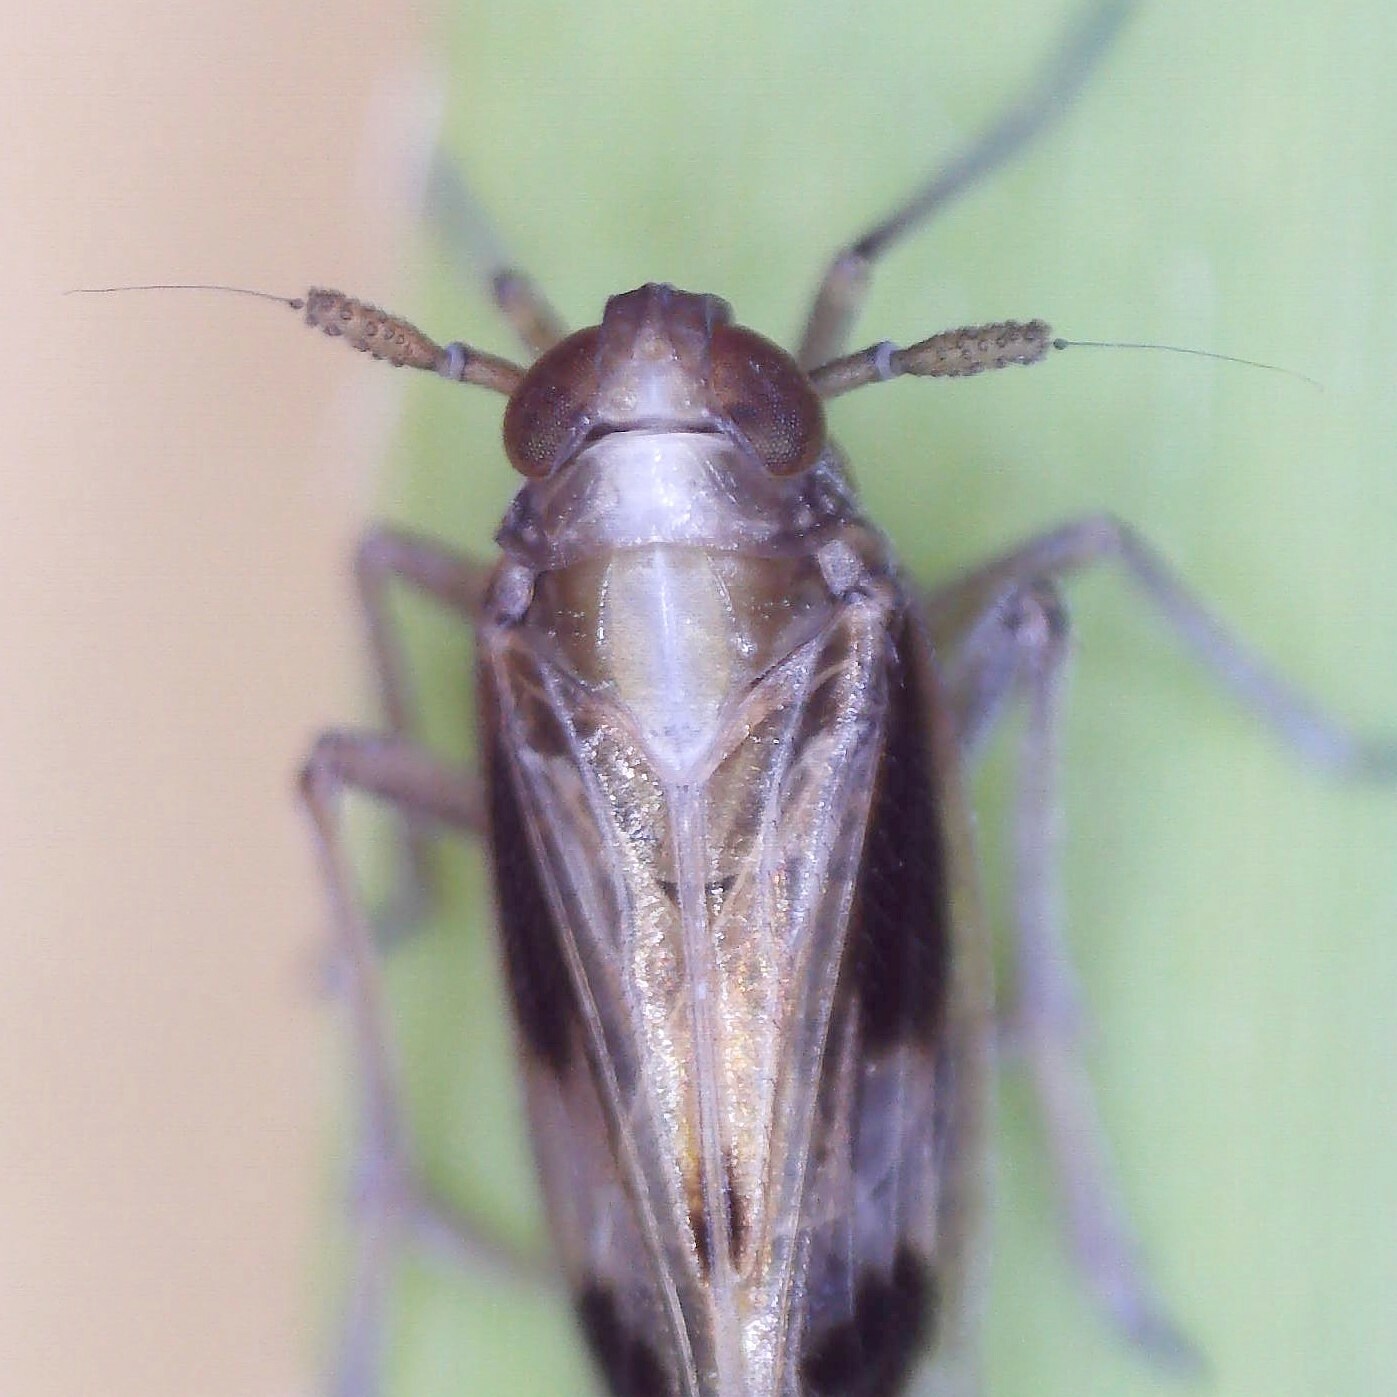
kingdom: Animalia
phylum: Arthropoda
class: Insecta
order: Hemiptera
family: Delphacidae
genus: Euides
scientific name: Euides basilinea
